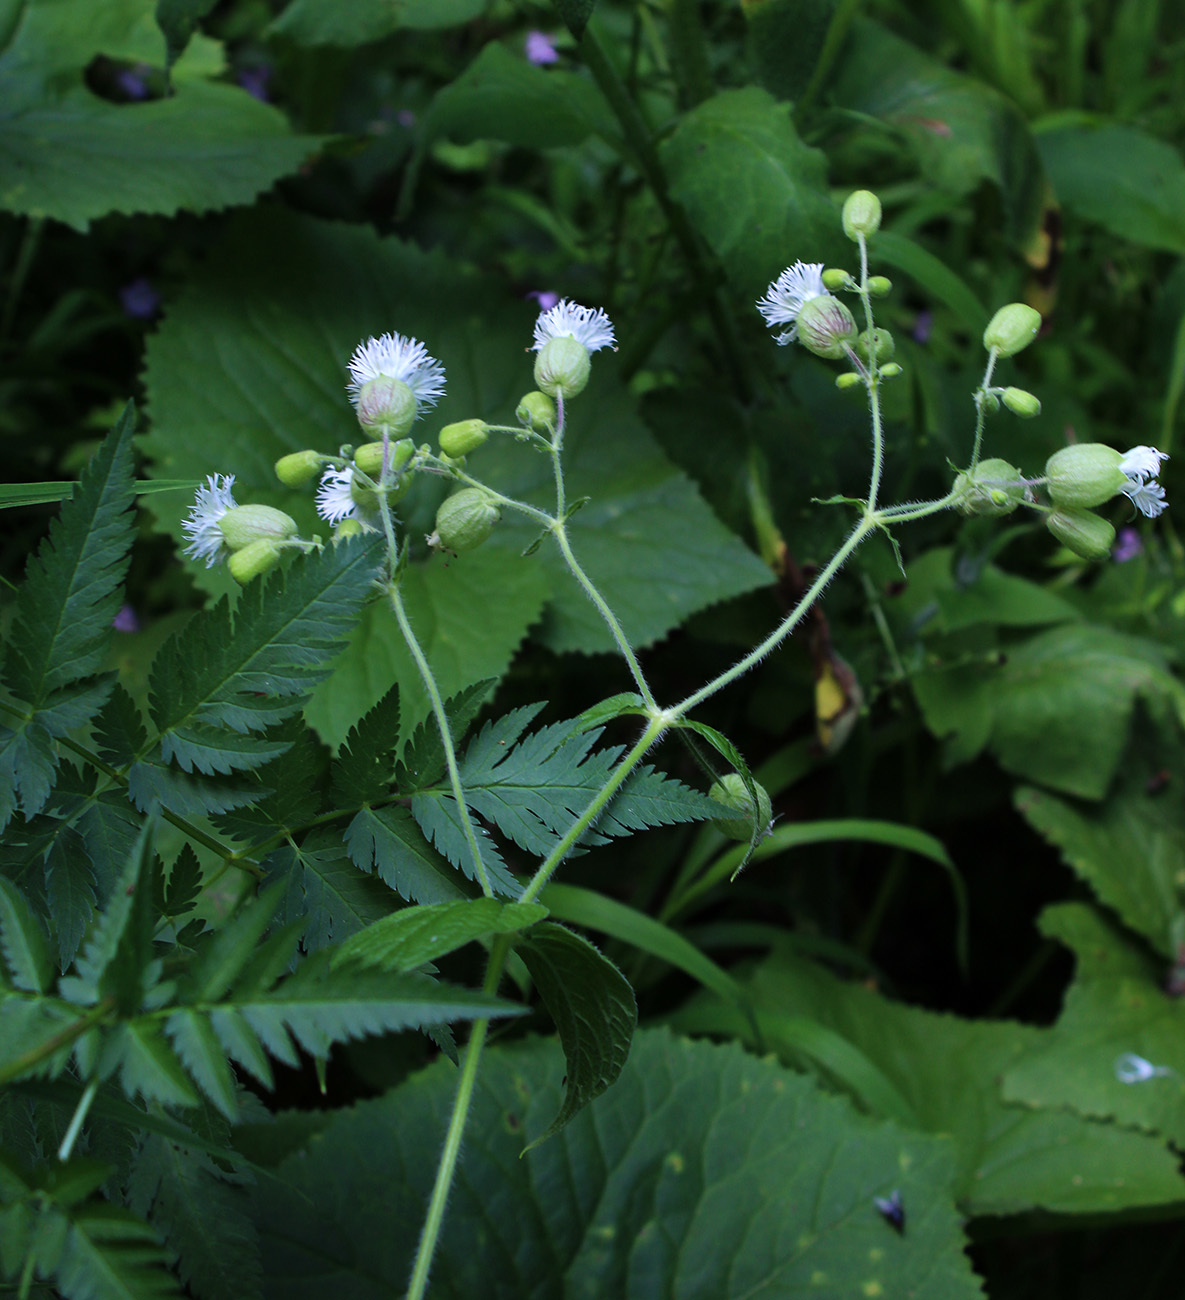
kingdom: Plantae
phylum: Tracheophyta
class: Magnoliopsida
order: Caryophyllales
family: Caryophyllaceae
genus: Silene
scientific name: Silene
